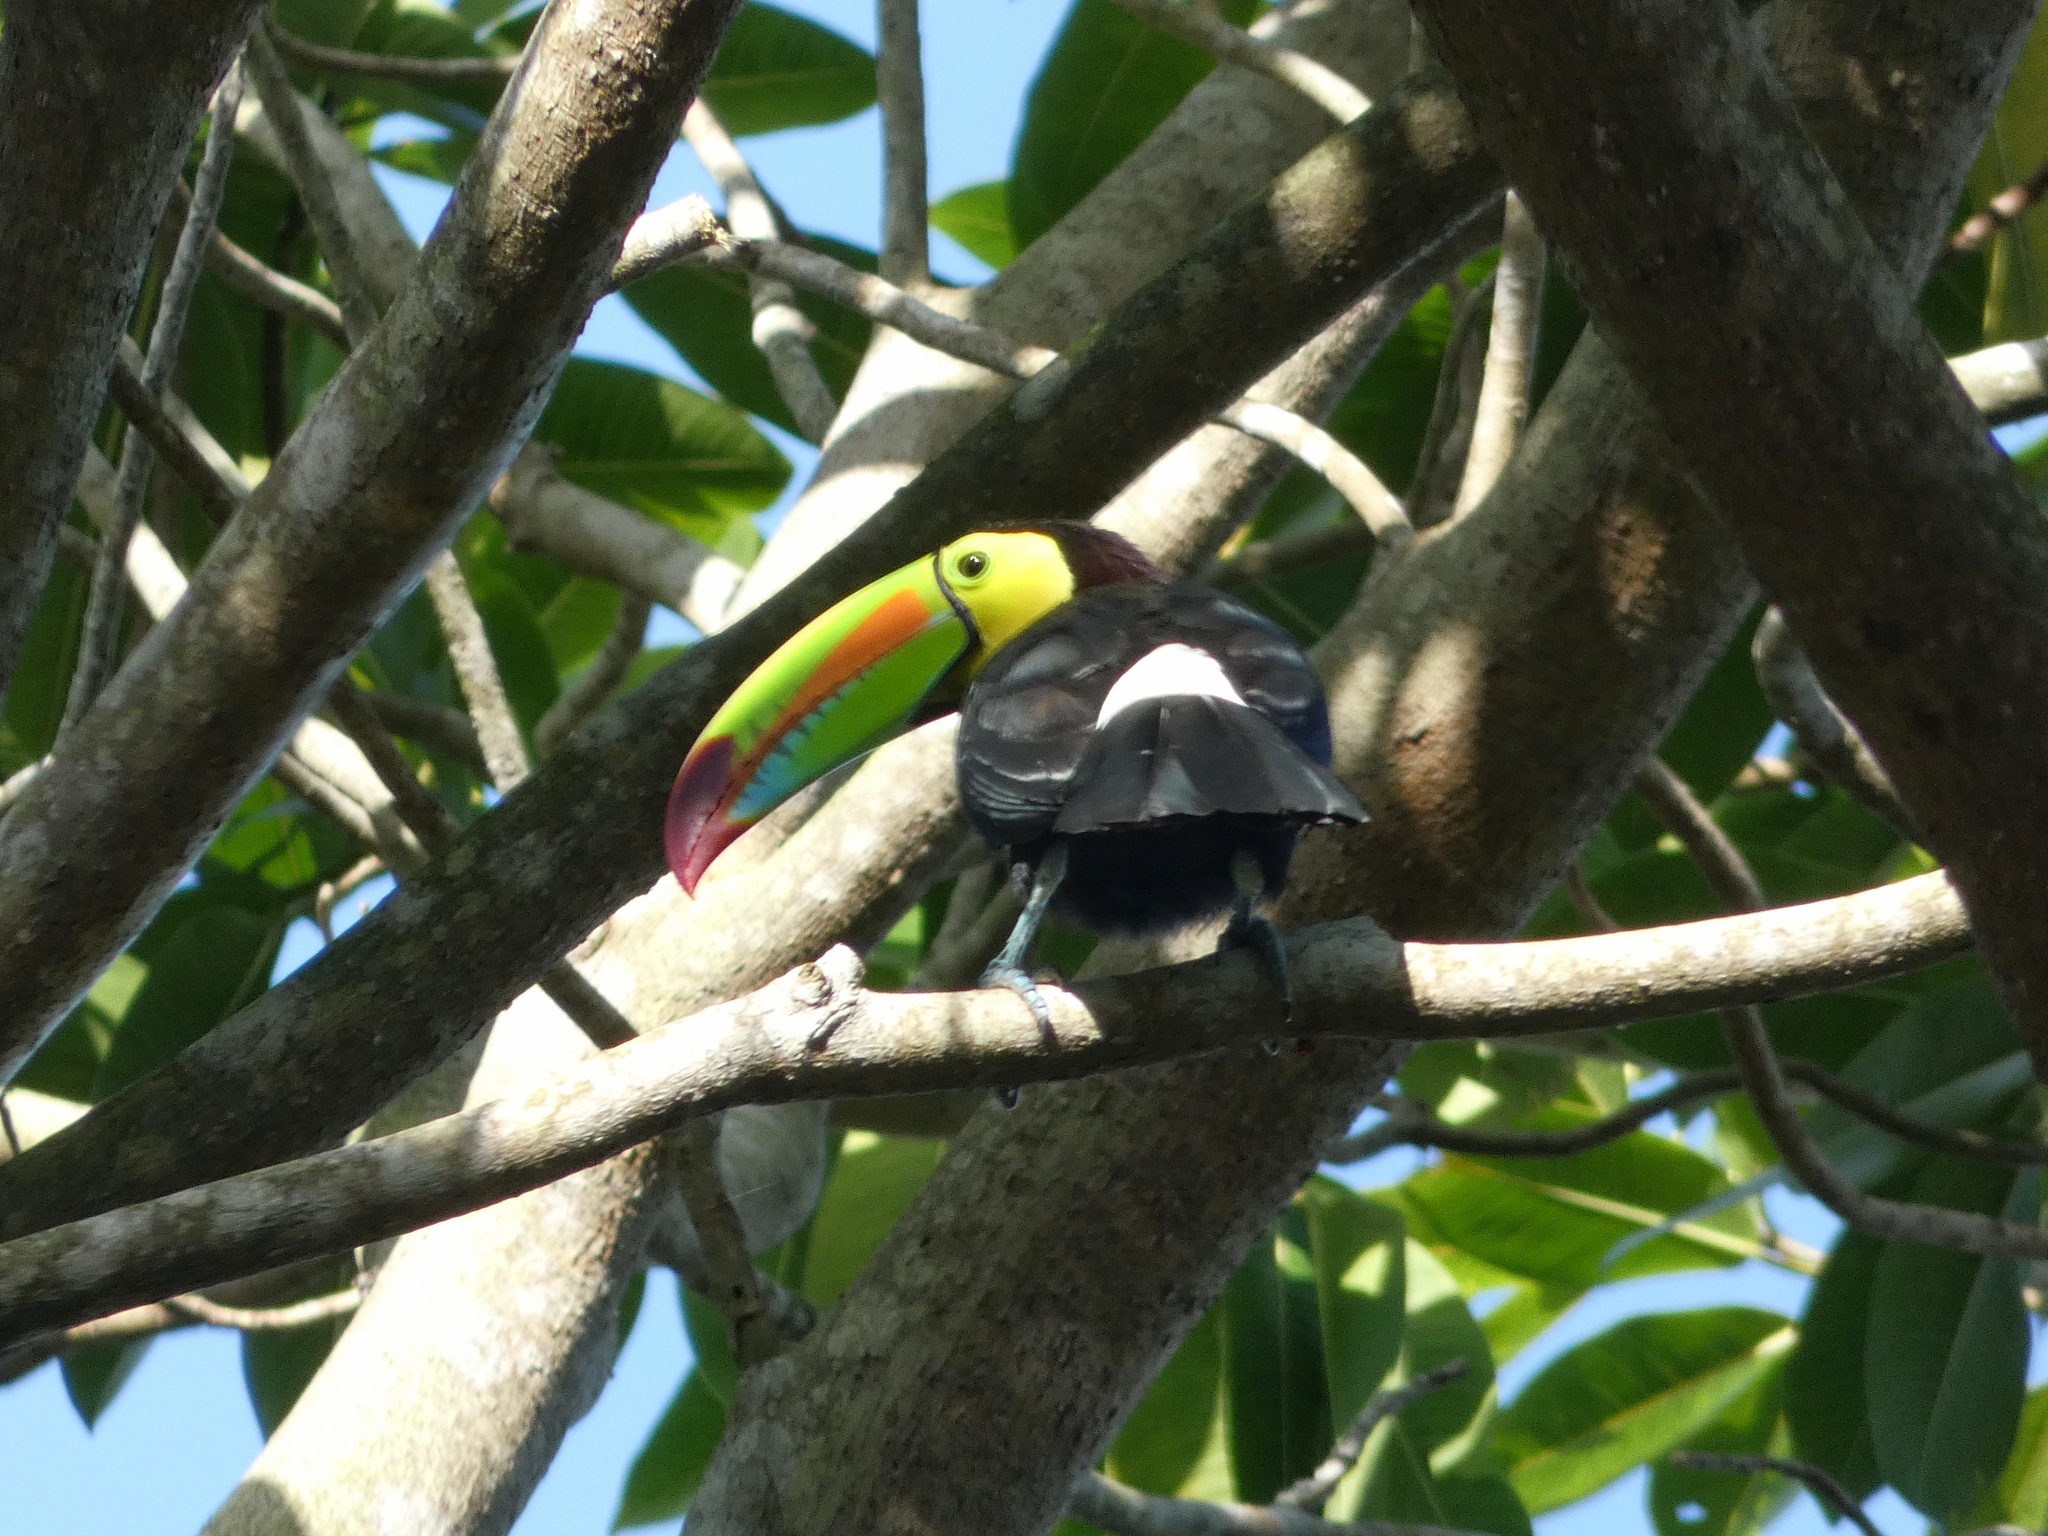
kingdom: Animalia
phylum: Chordata
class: Aves
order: Piciformes
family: Ramphastidae
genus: Ramphastos
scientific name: Ramphastos sulfuratus
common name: Keel-billed toucan
